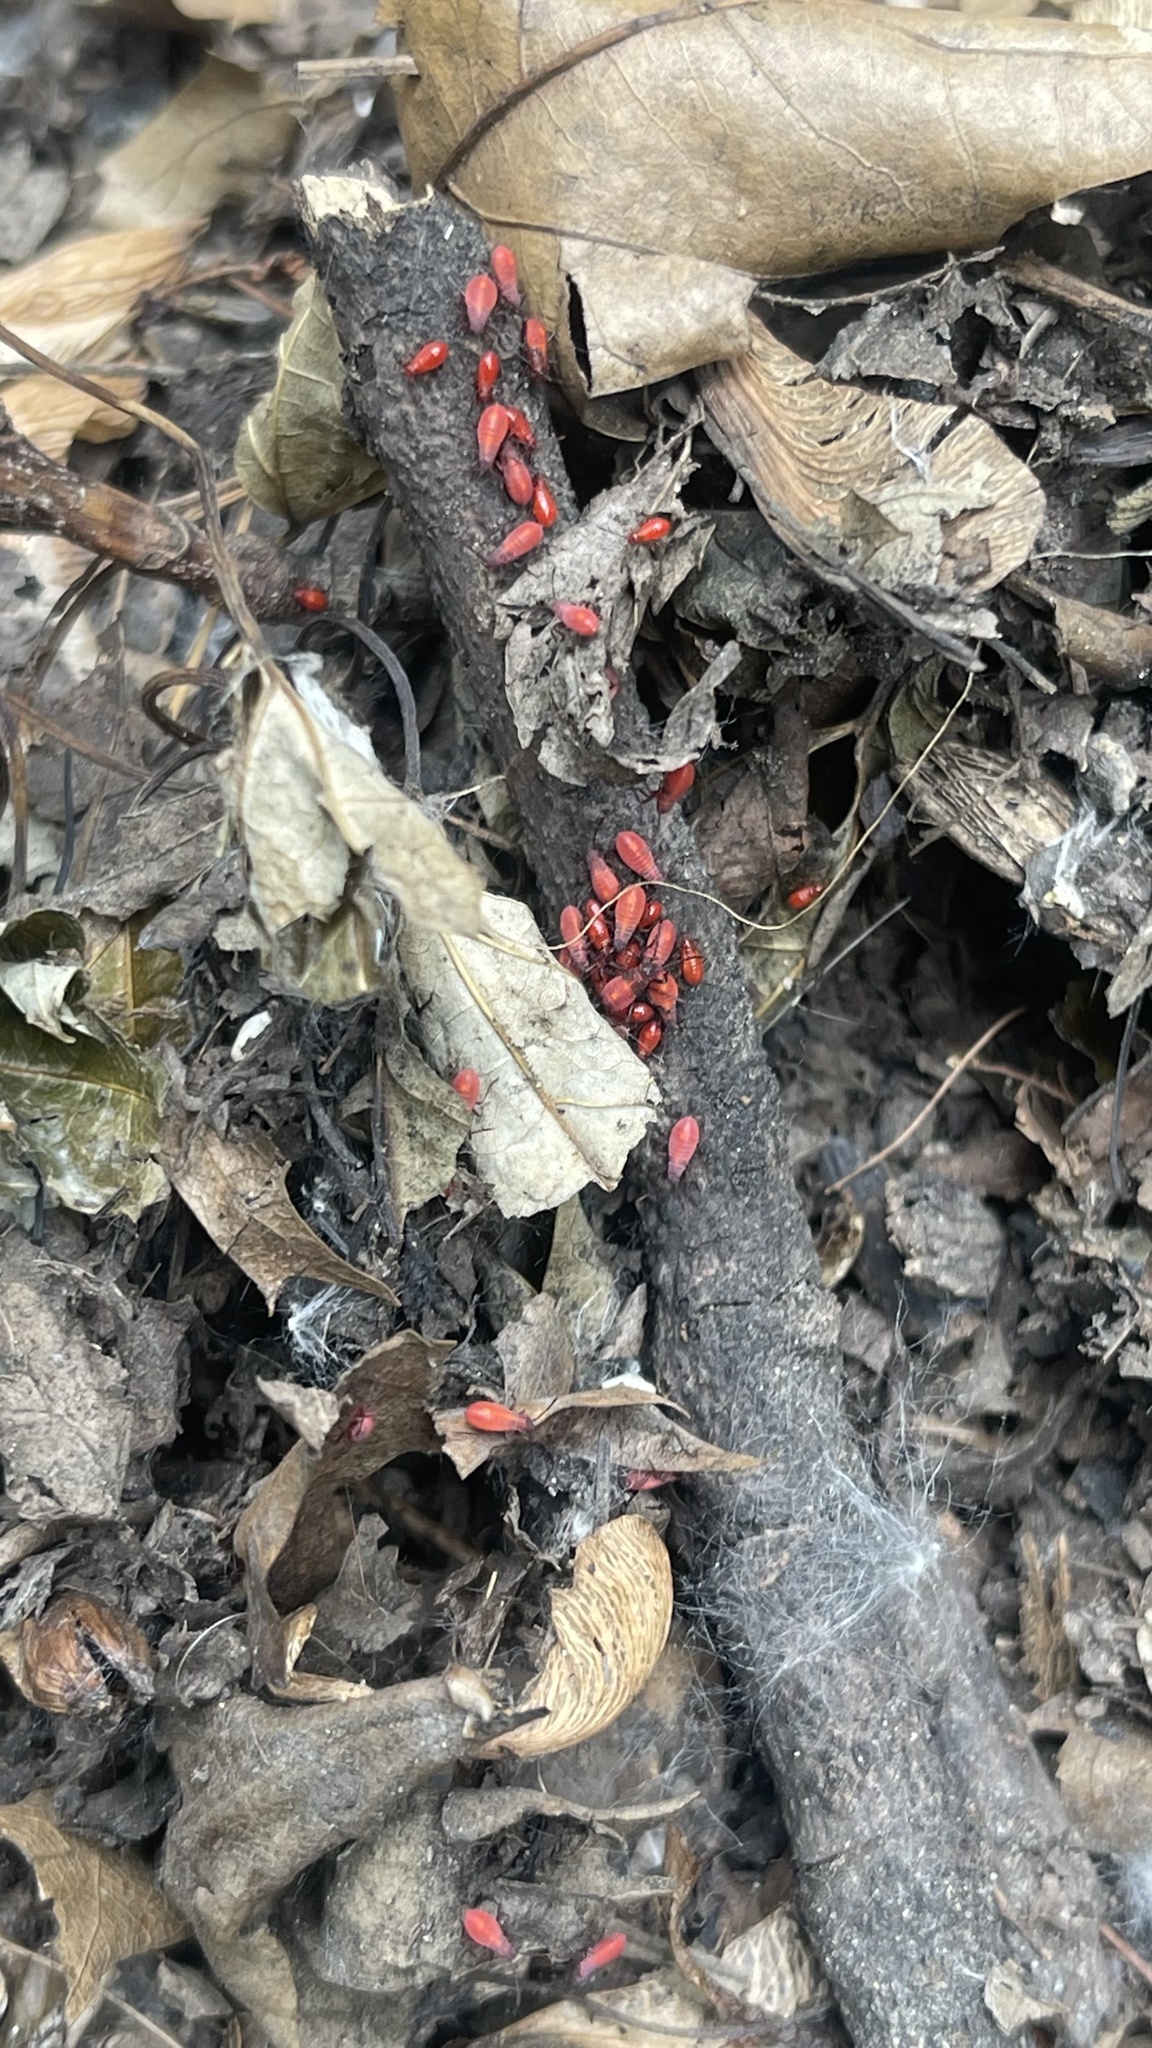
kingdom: Animalia
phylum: Arthropoda
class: Insecta
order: Hemiptera
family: Rhopalidae
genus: Boisea
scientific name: Boisea trivittata
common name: Boxelder bug
